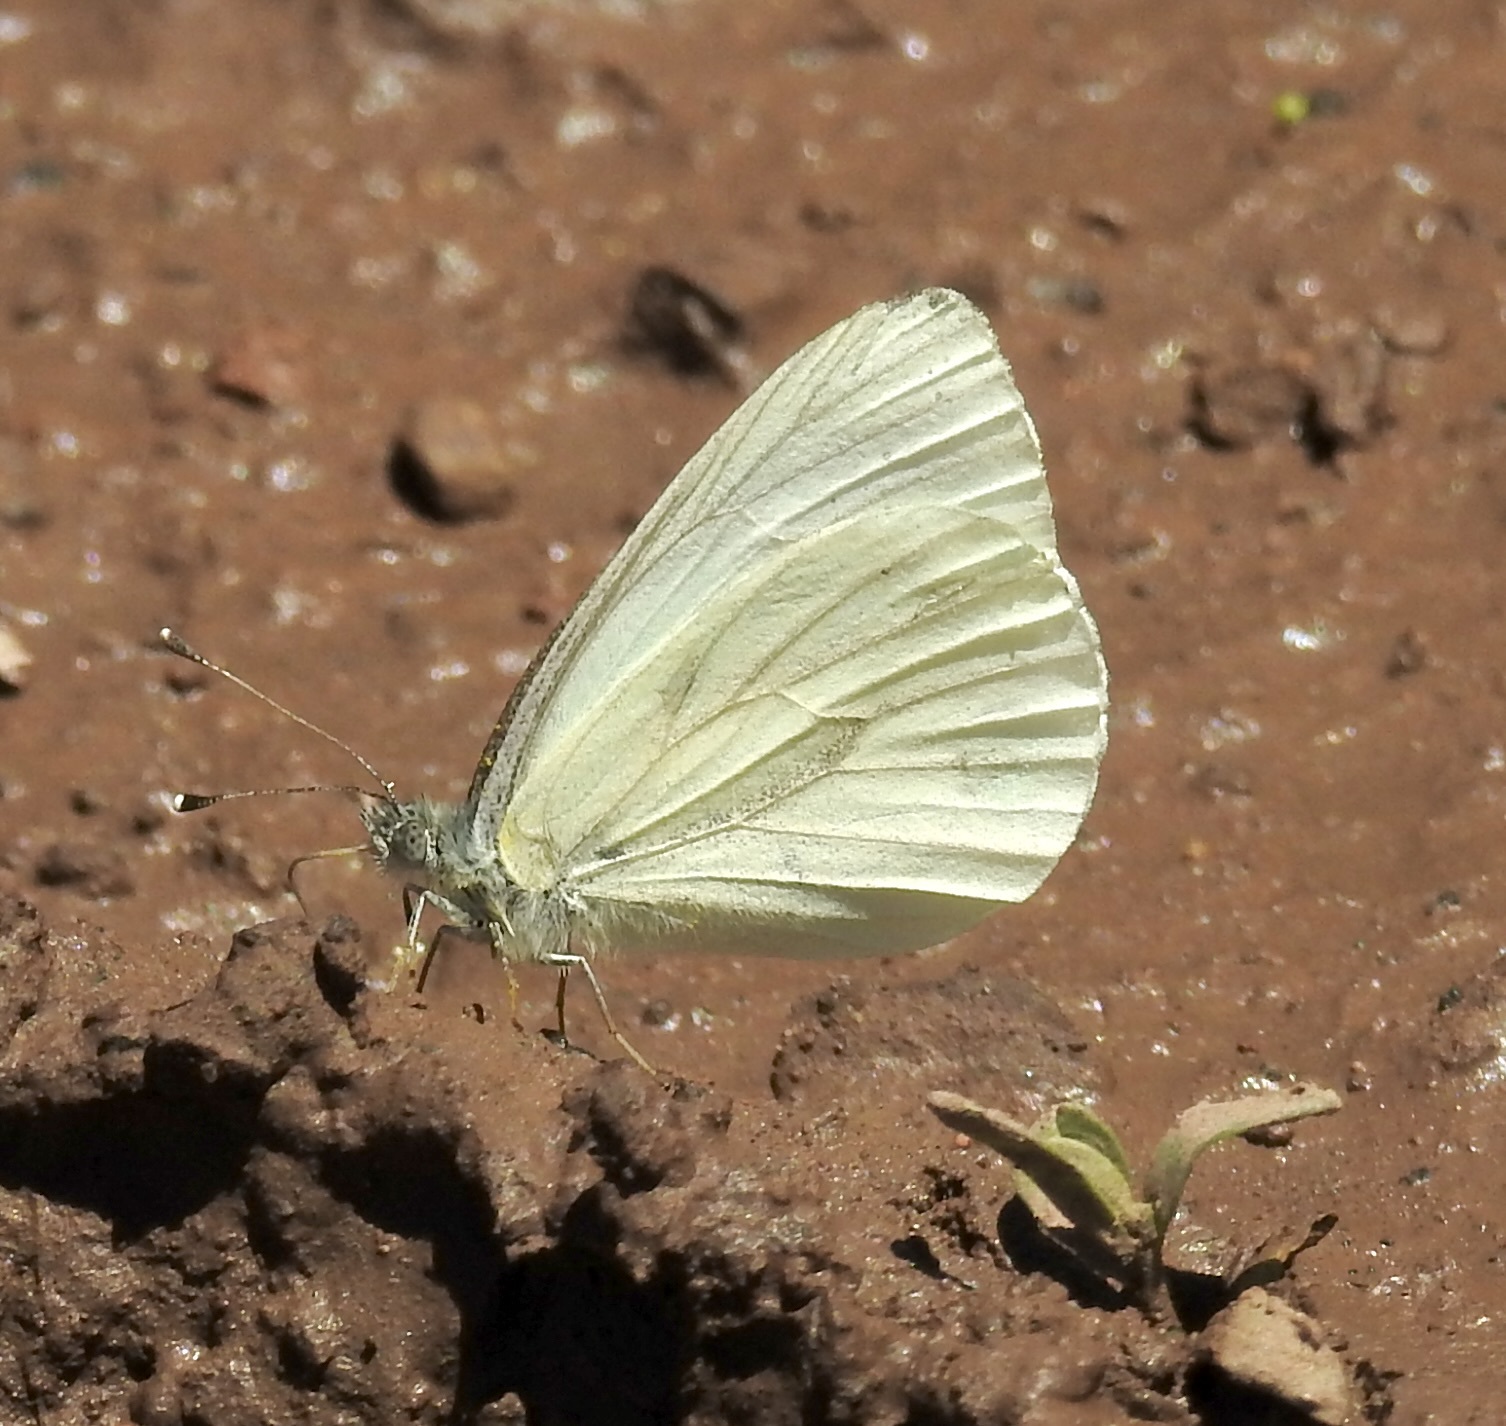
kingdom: Animalia
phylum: Arthropoda
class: Insecta
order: Lepidoptera
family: Pieridae
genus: Pieris
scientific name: Pieris marginalis
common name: Margined white
